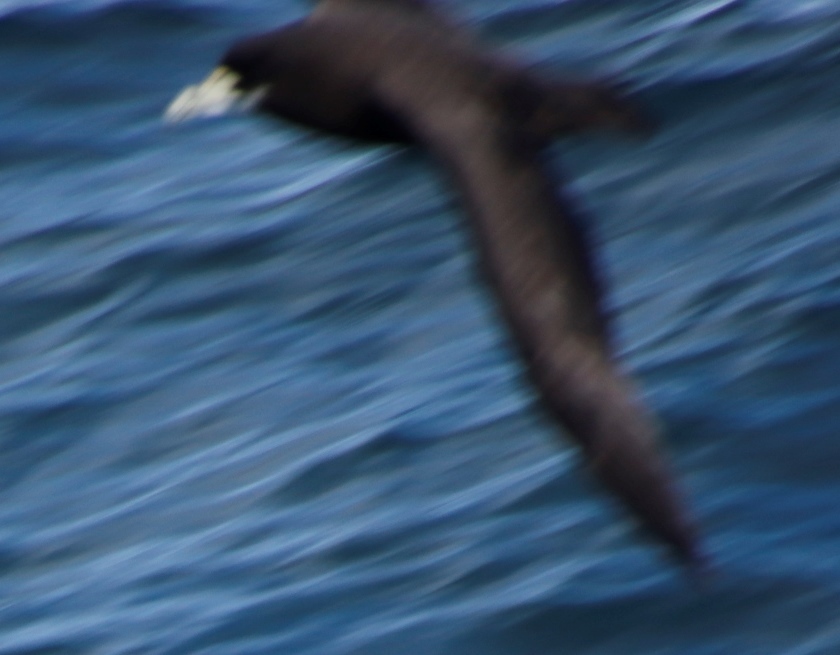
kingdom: Animalia
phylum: Chordata
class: Aves
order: Procellariiformes
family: Procellariidae
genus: Procellaria
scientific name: Procellaria aequinoctialis
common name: White-chinned petrel
